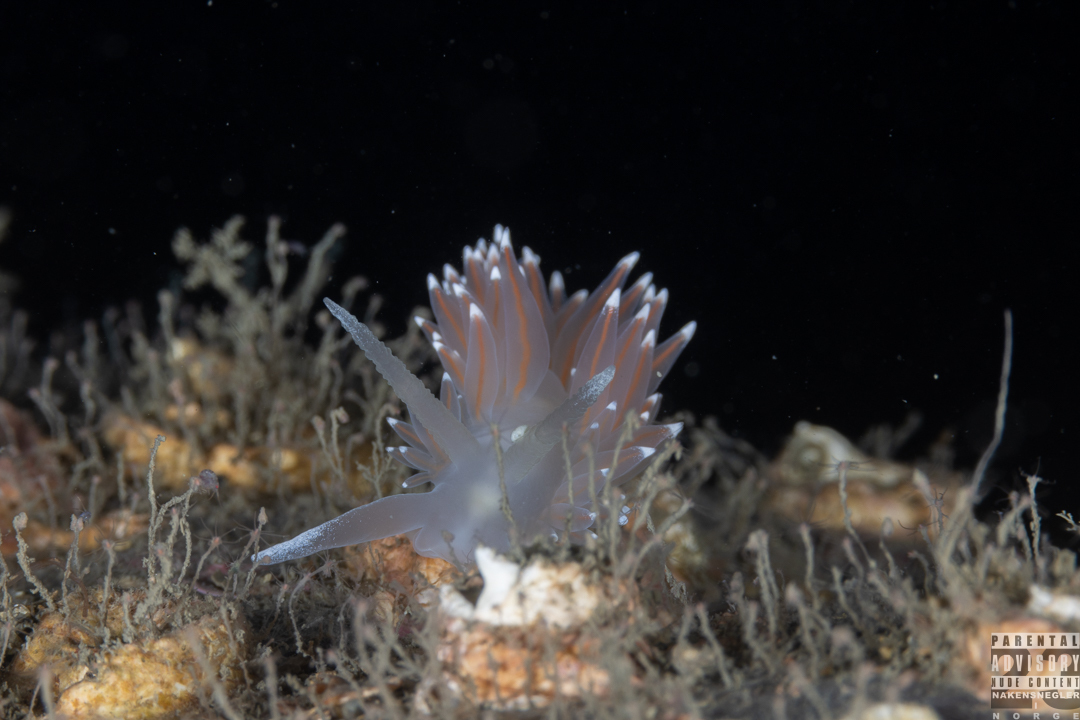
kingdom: Animalia
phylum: Mollusca
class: Gastropoda
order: Nudibranchia
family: Coryphellidae
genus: Coryphella
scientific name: Coryphella nobilis
